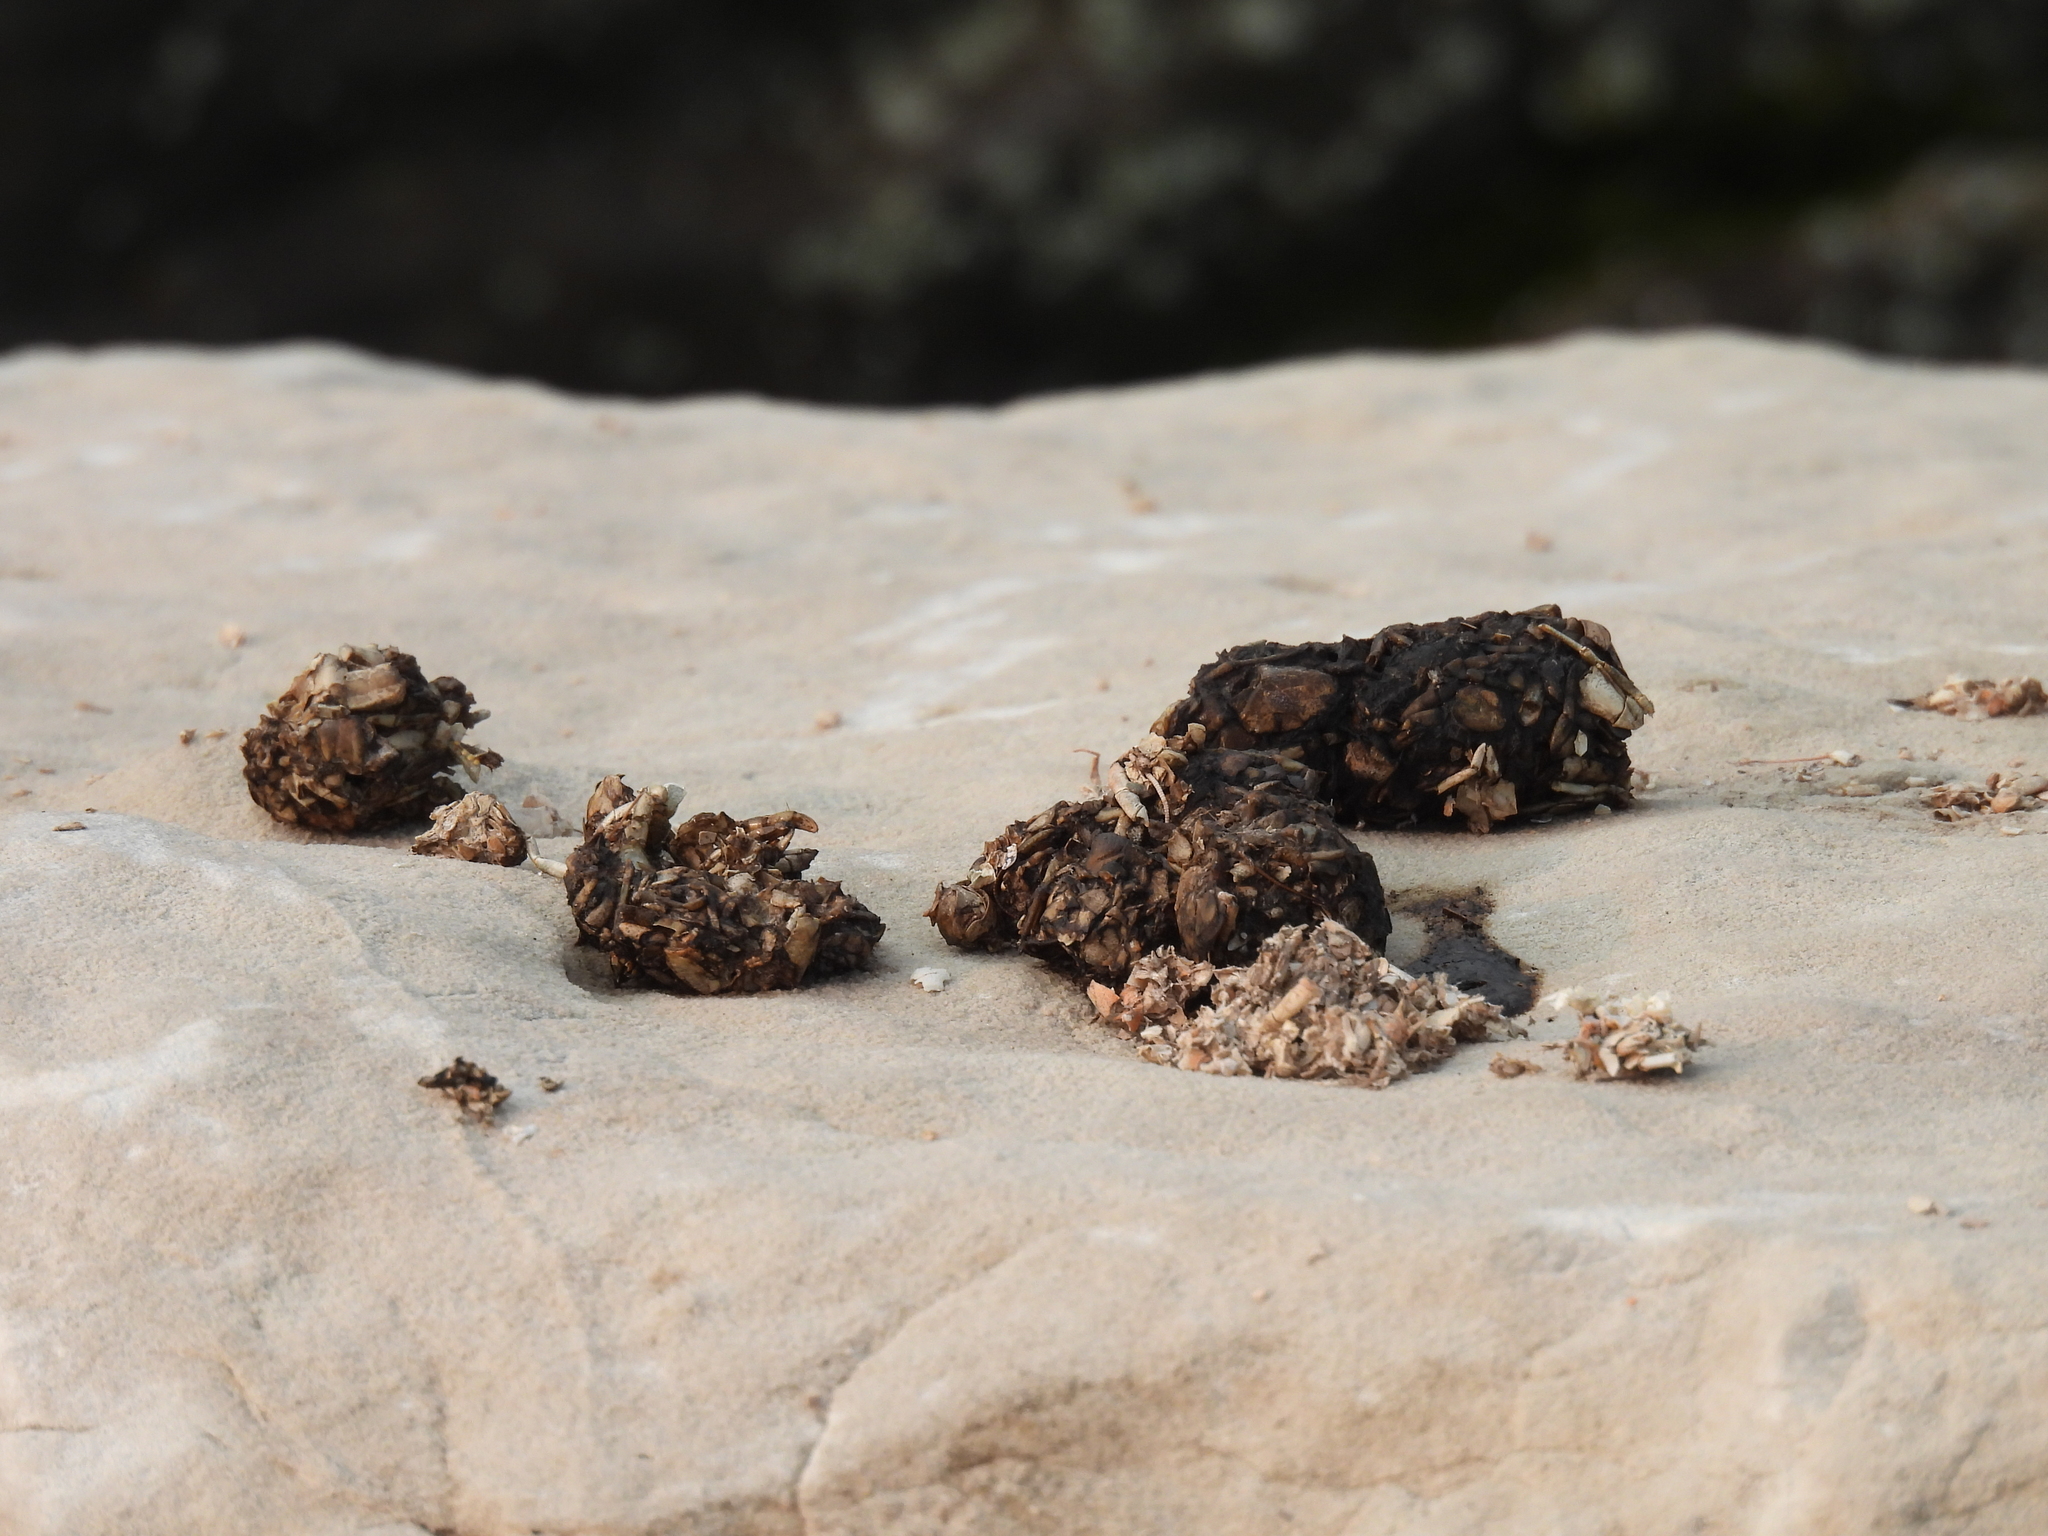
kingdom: Animalia
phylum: Chordata
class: Mammalia
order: Carnivora
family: Mustelidae
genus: Lontra
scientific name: Lontra canadensis
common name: North american river otter
